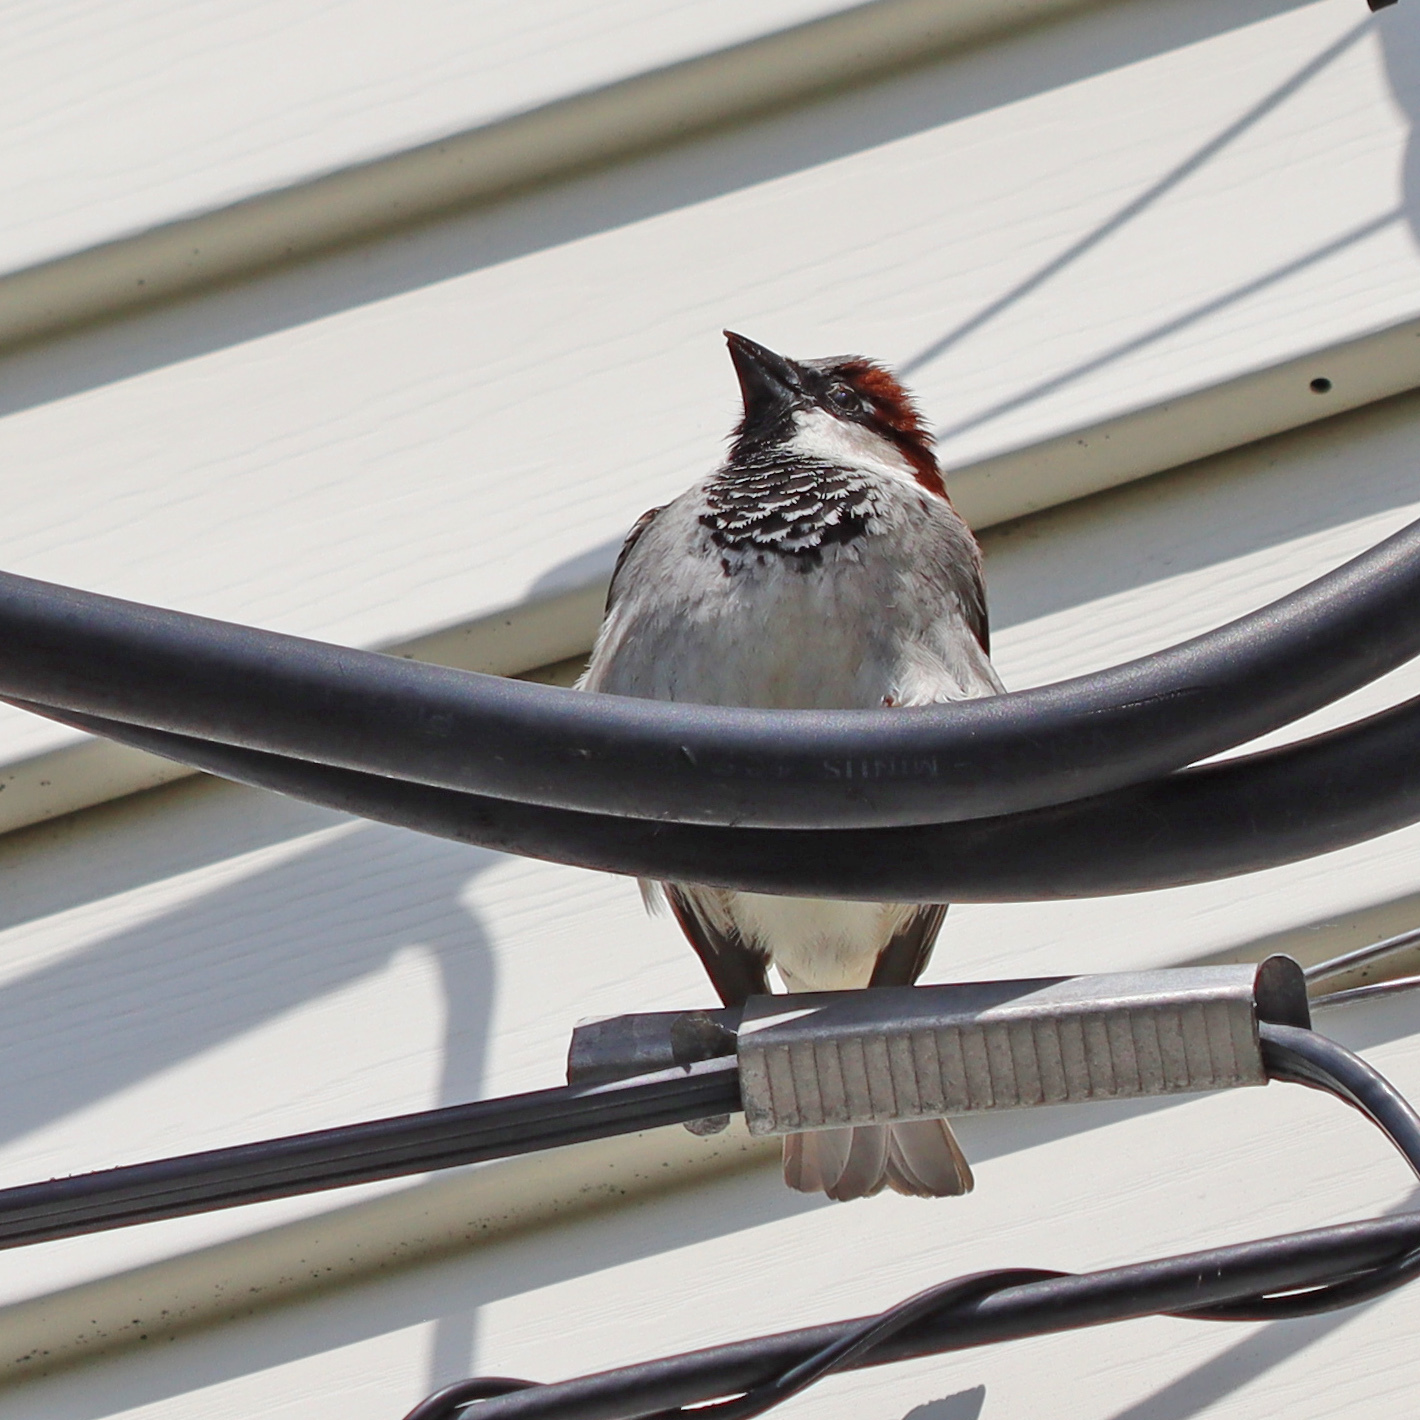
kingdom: Animalia
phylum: Chordata
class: Aves
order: Passeriformes
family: Passeridae
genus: Passer
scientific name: Passer domesticus
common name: House sparrow
